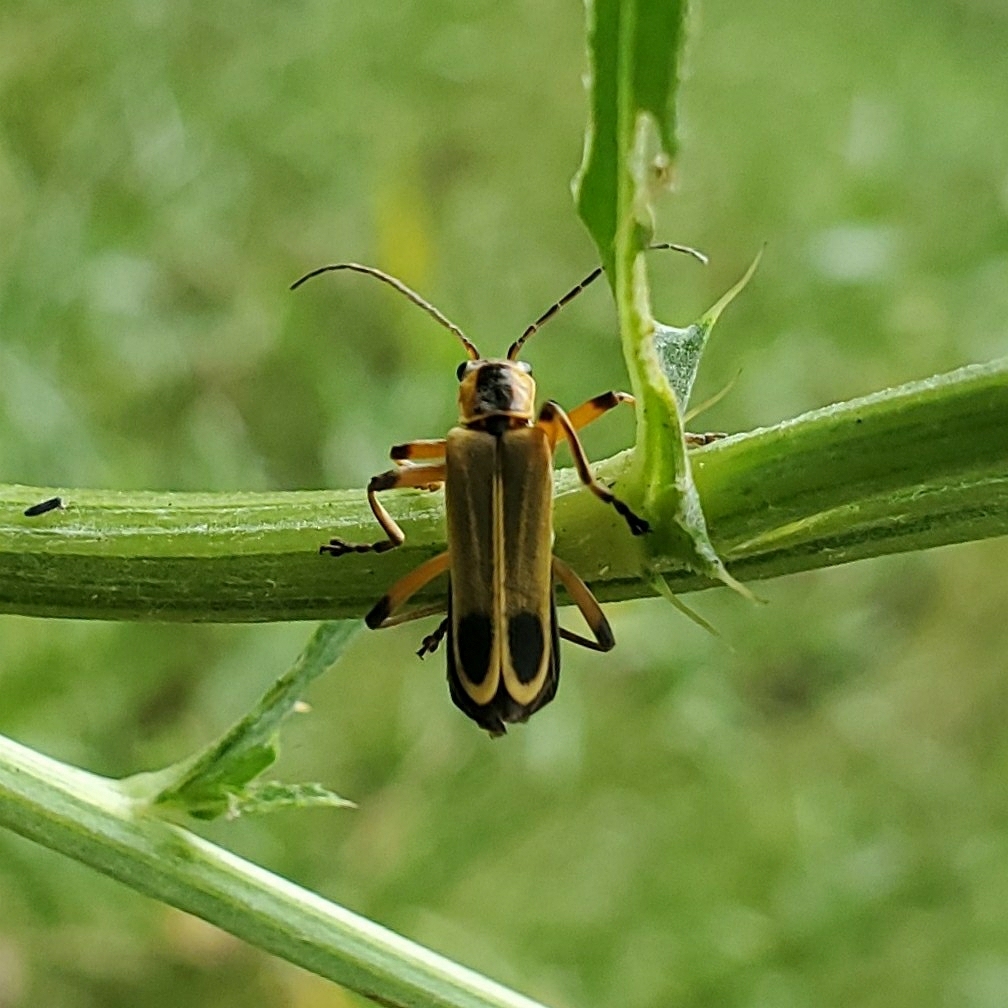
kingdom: Animalia
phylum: Arthropoda
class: Insecta
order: Coleoptera
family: Cantharidae
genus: Chauliognathus
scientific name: Chauliognathus marginatus
